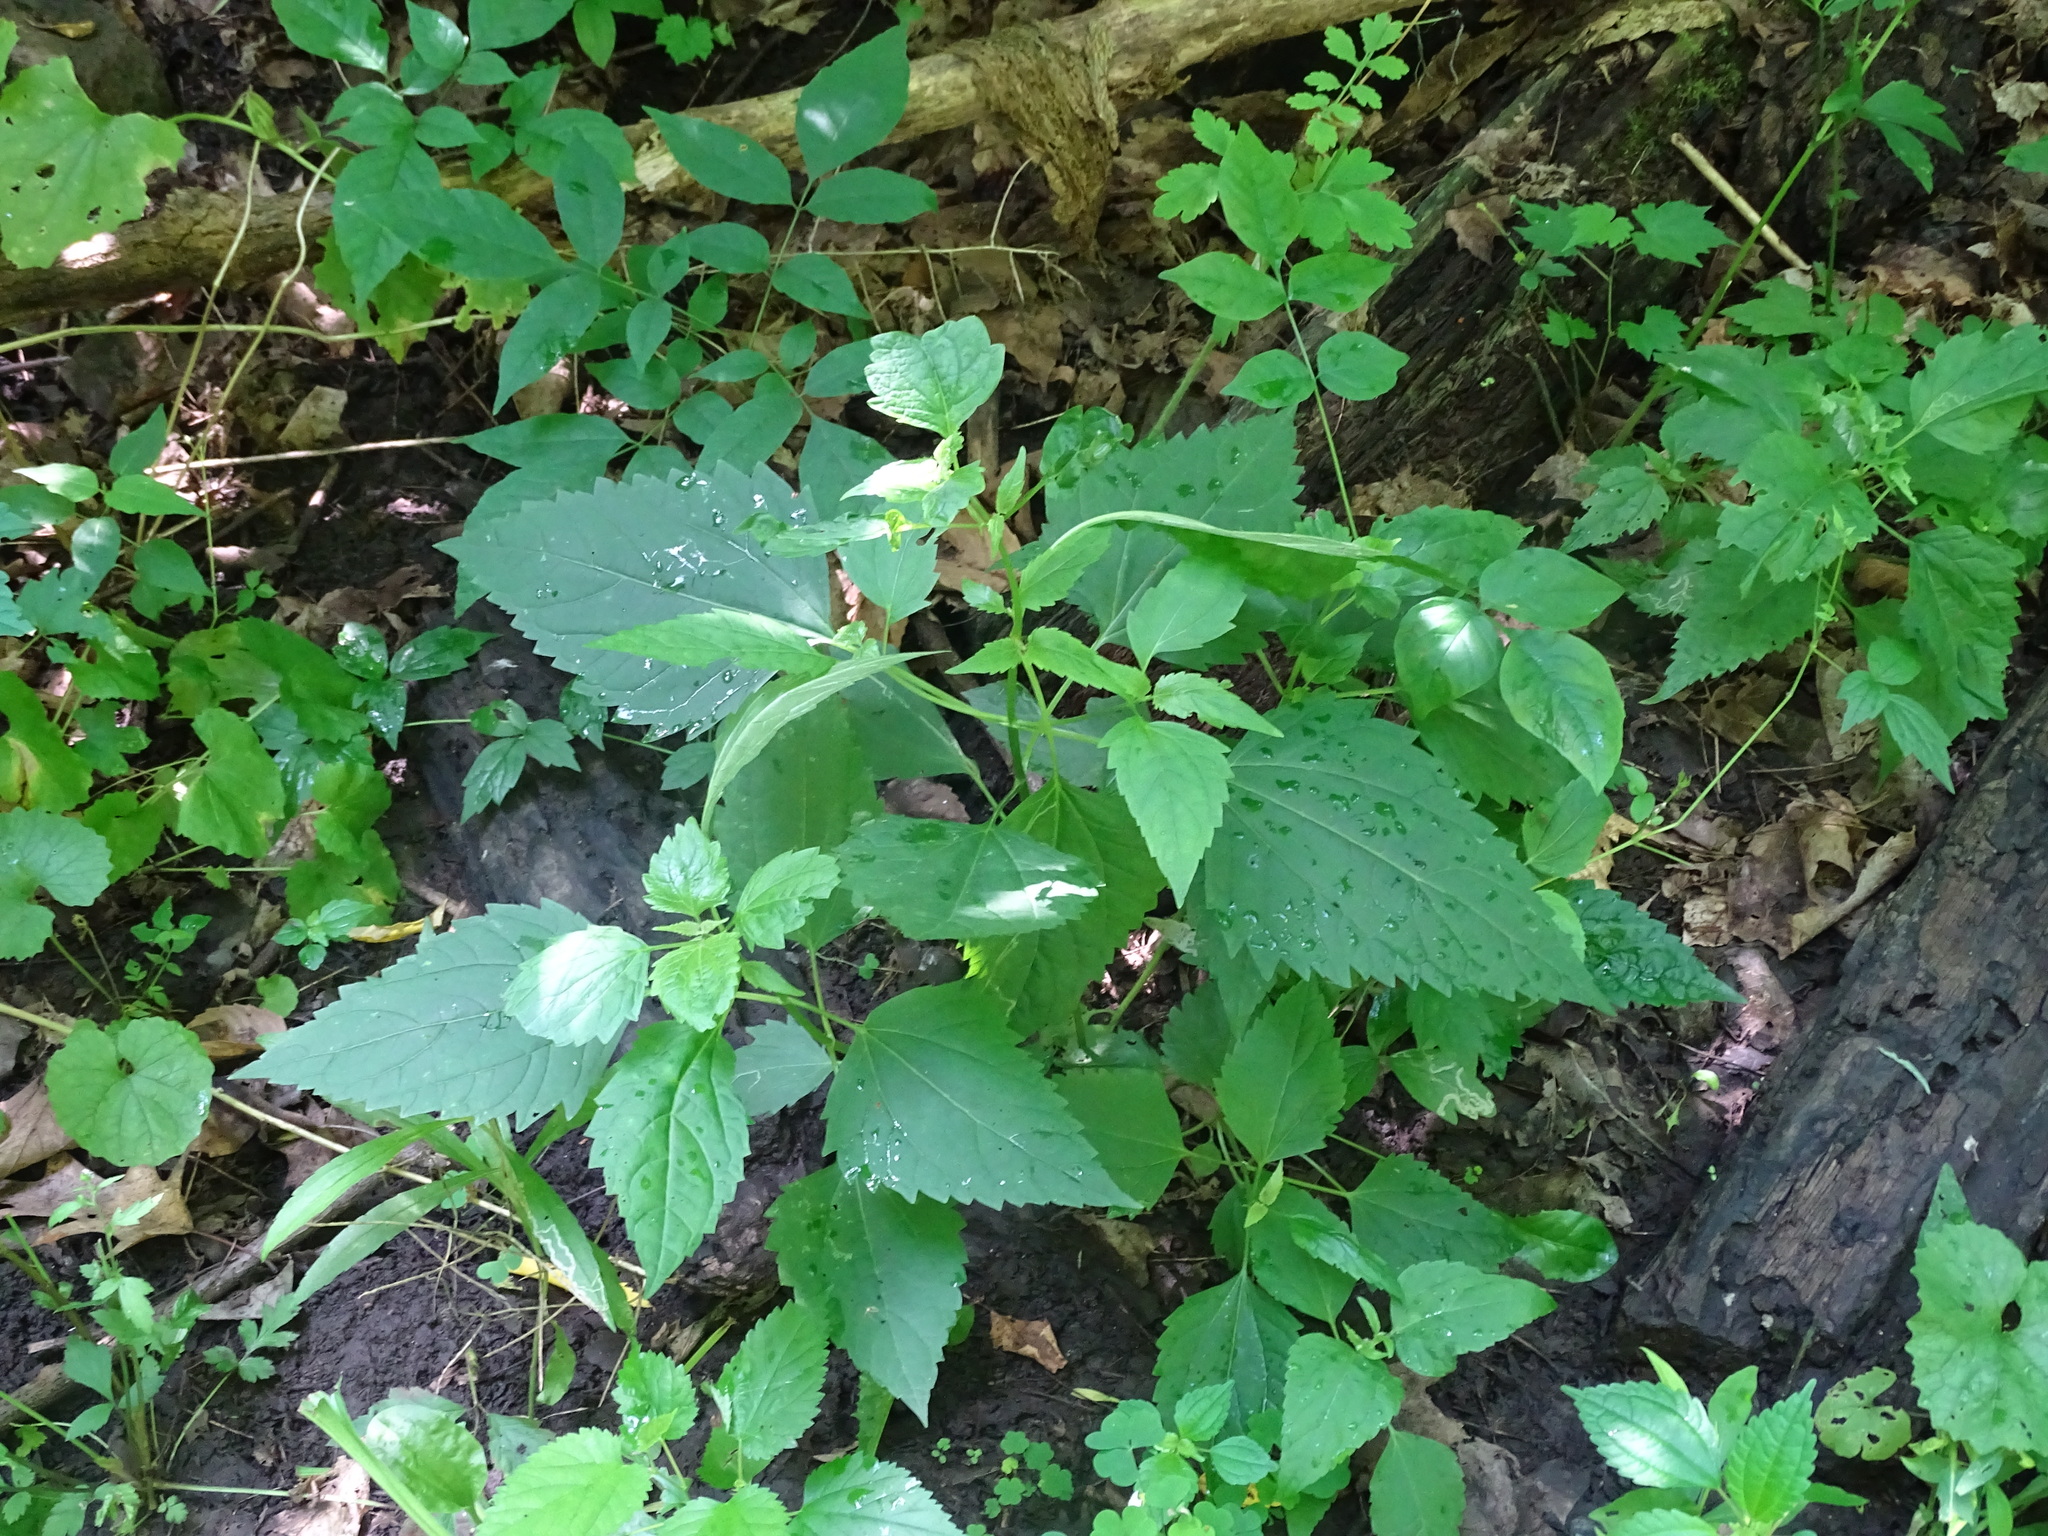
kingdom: Plantae
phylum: Tracheophyta
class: Magnoliopsida
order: Asterales
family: Asteraceae
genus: Ageratina
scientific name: Ageratina altissima
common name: White snakeroot
